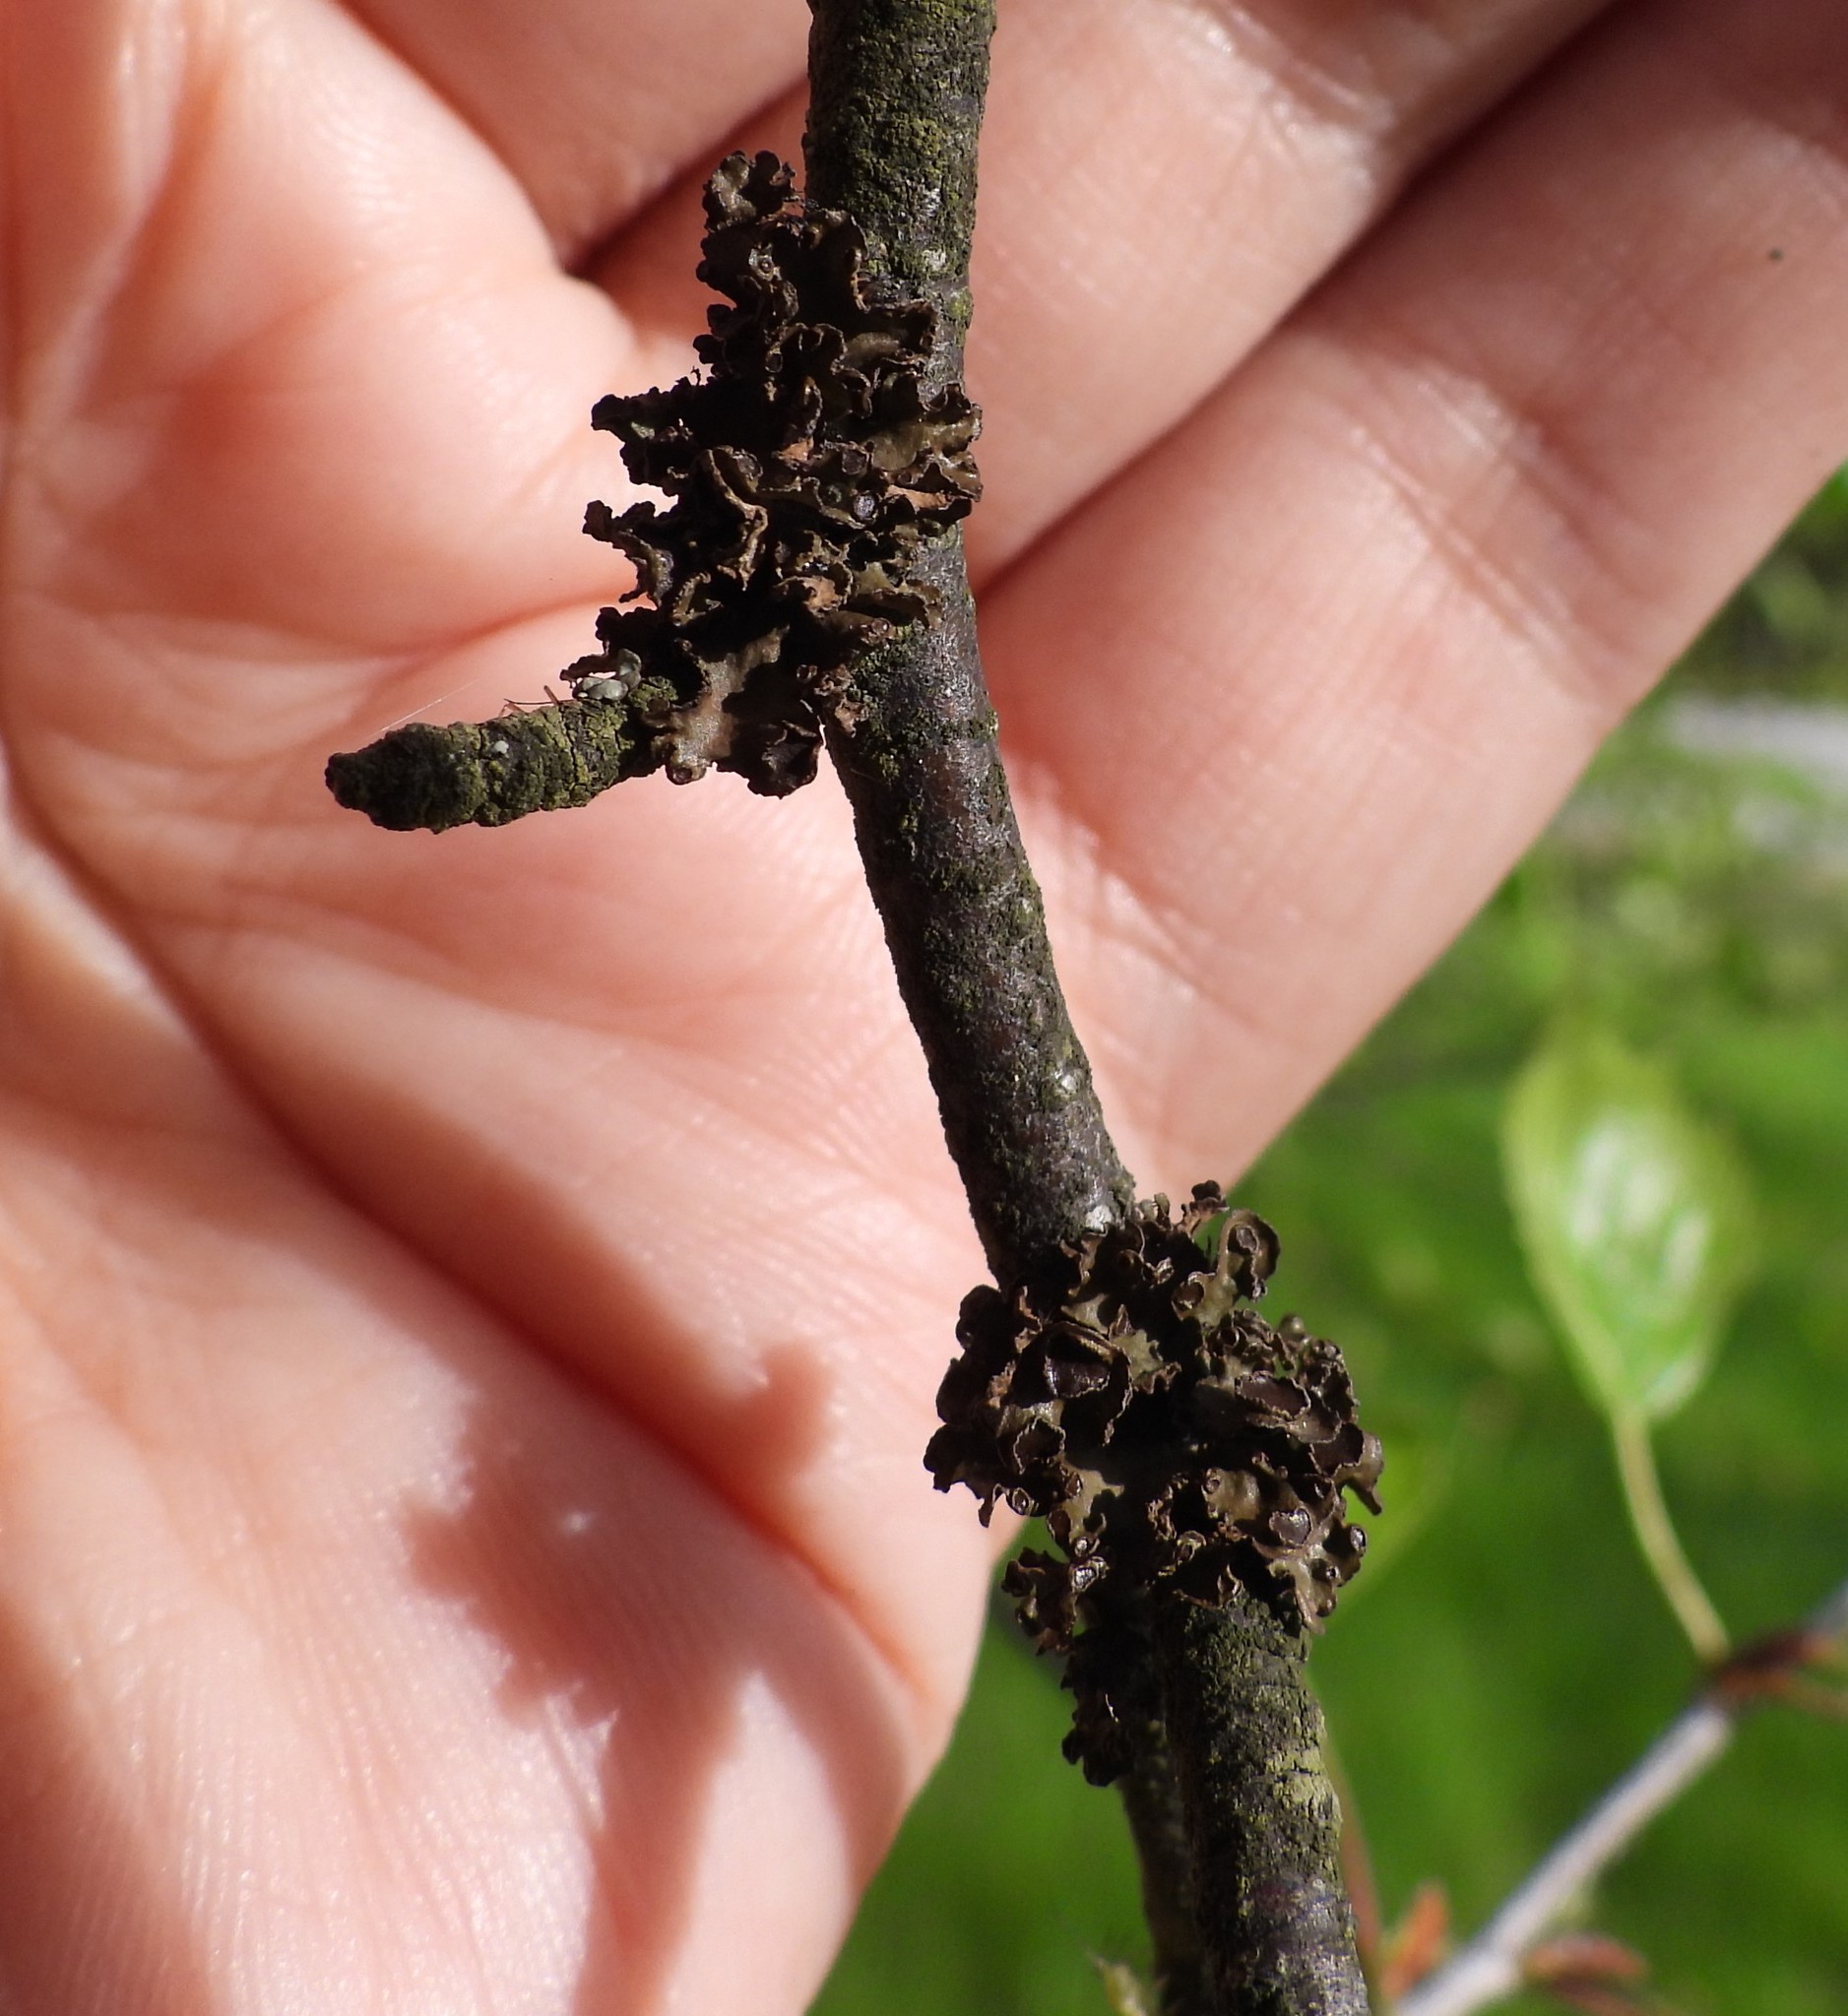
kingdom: Fungi
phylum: Ascomycota
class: Lecanoromycetes
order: Lecanorales
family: Parmeliaceae
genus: Cetraria
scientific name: Cetraria sepincola
